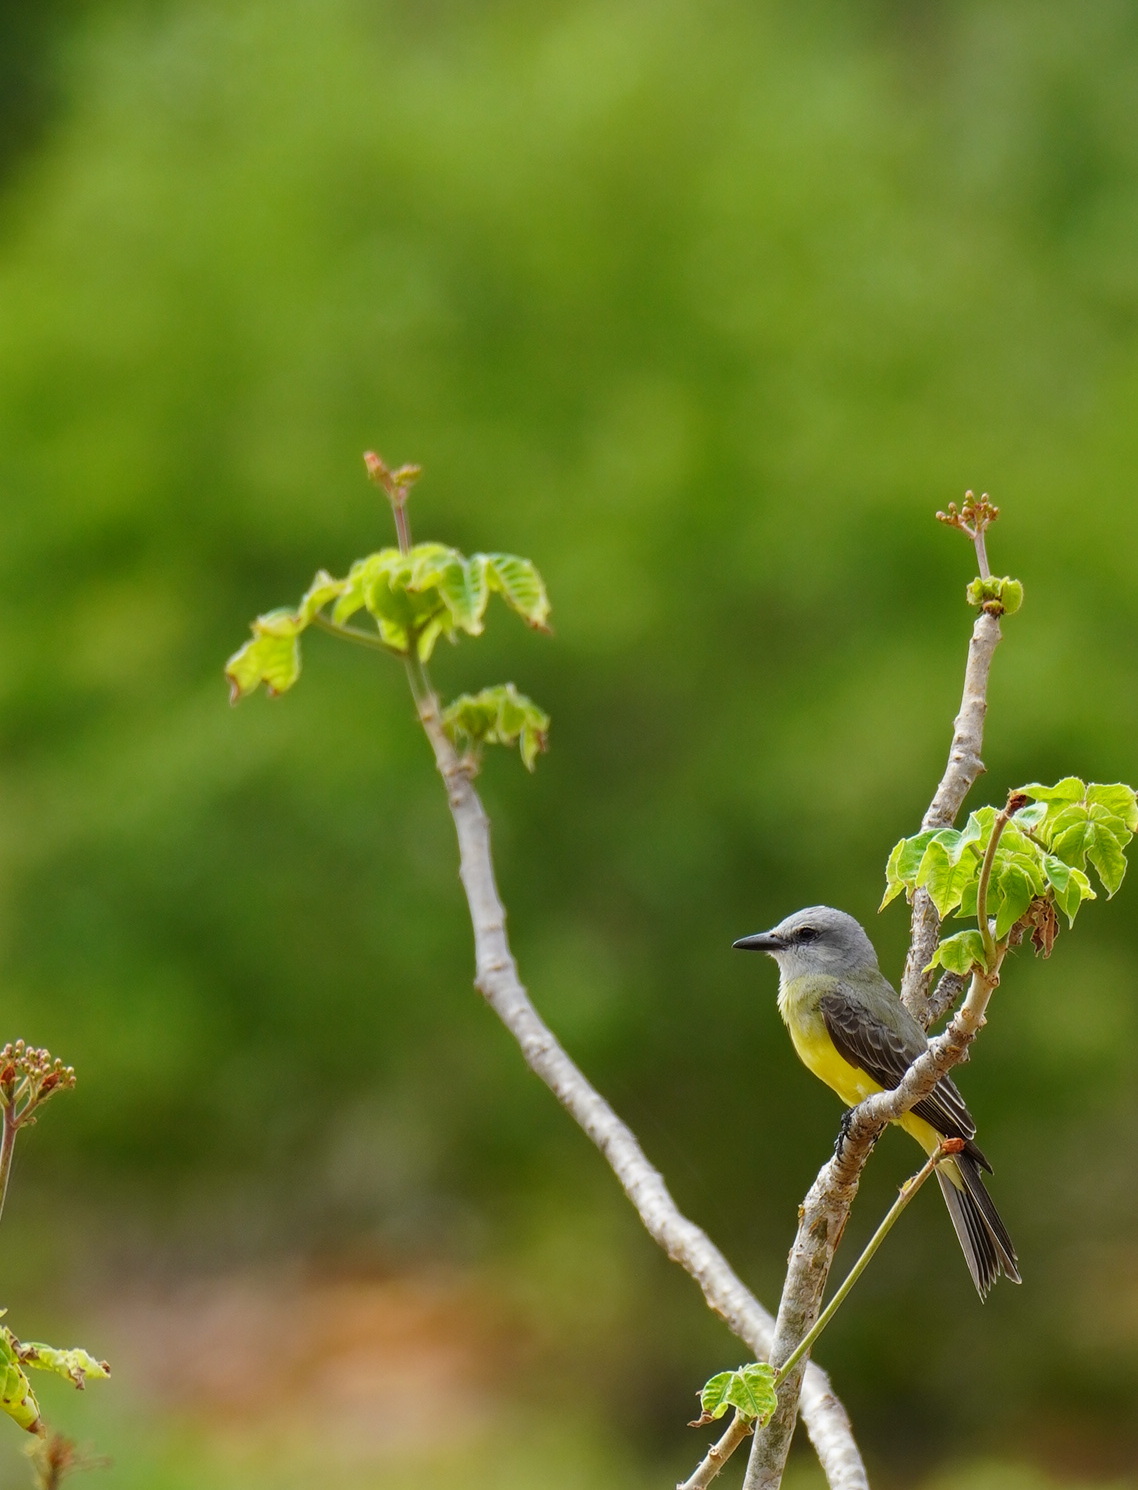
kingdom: Animalia
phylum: Chordata
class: Aves
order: Passeriformes
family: Tyrannidae
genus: Tyrannus
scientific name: Tyrannus melancholicus
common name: Tropical kingbird
